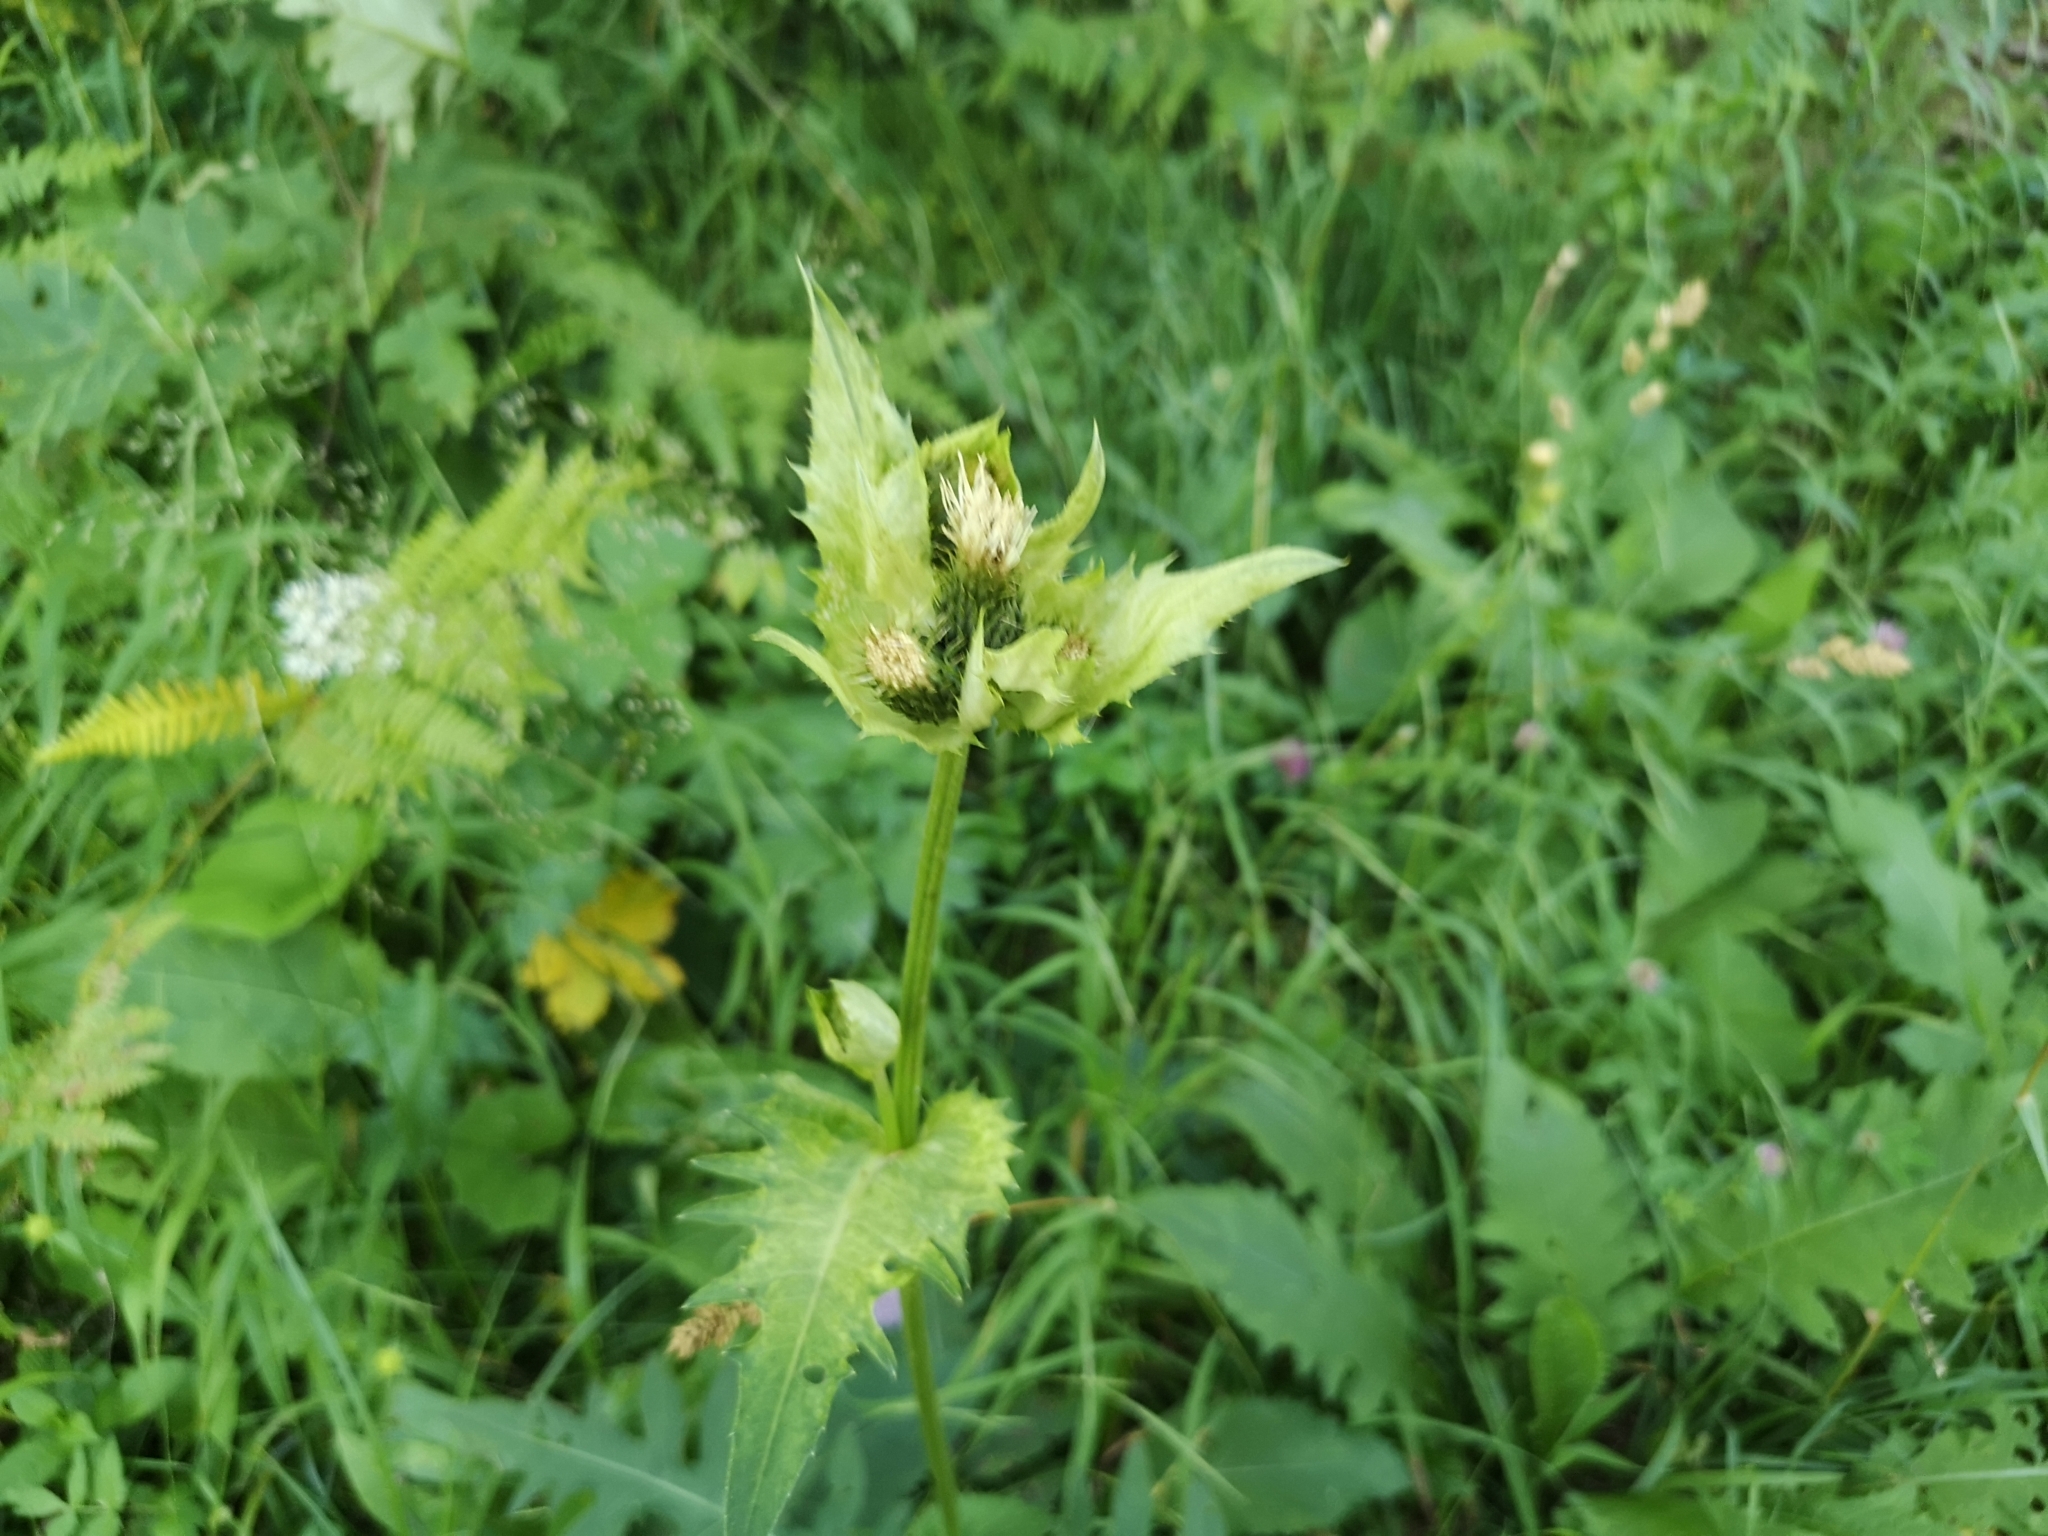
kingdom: Plantae
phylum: Tracheophyta
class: Magnoliopsida
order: Asterales
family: Asteraceae
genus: Cirsium
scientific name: Cirsium oleraceum
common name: Cabbage thistle
